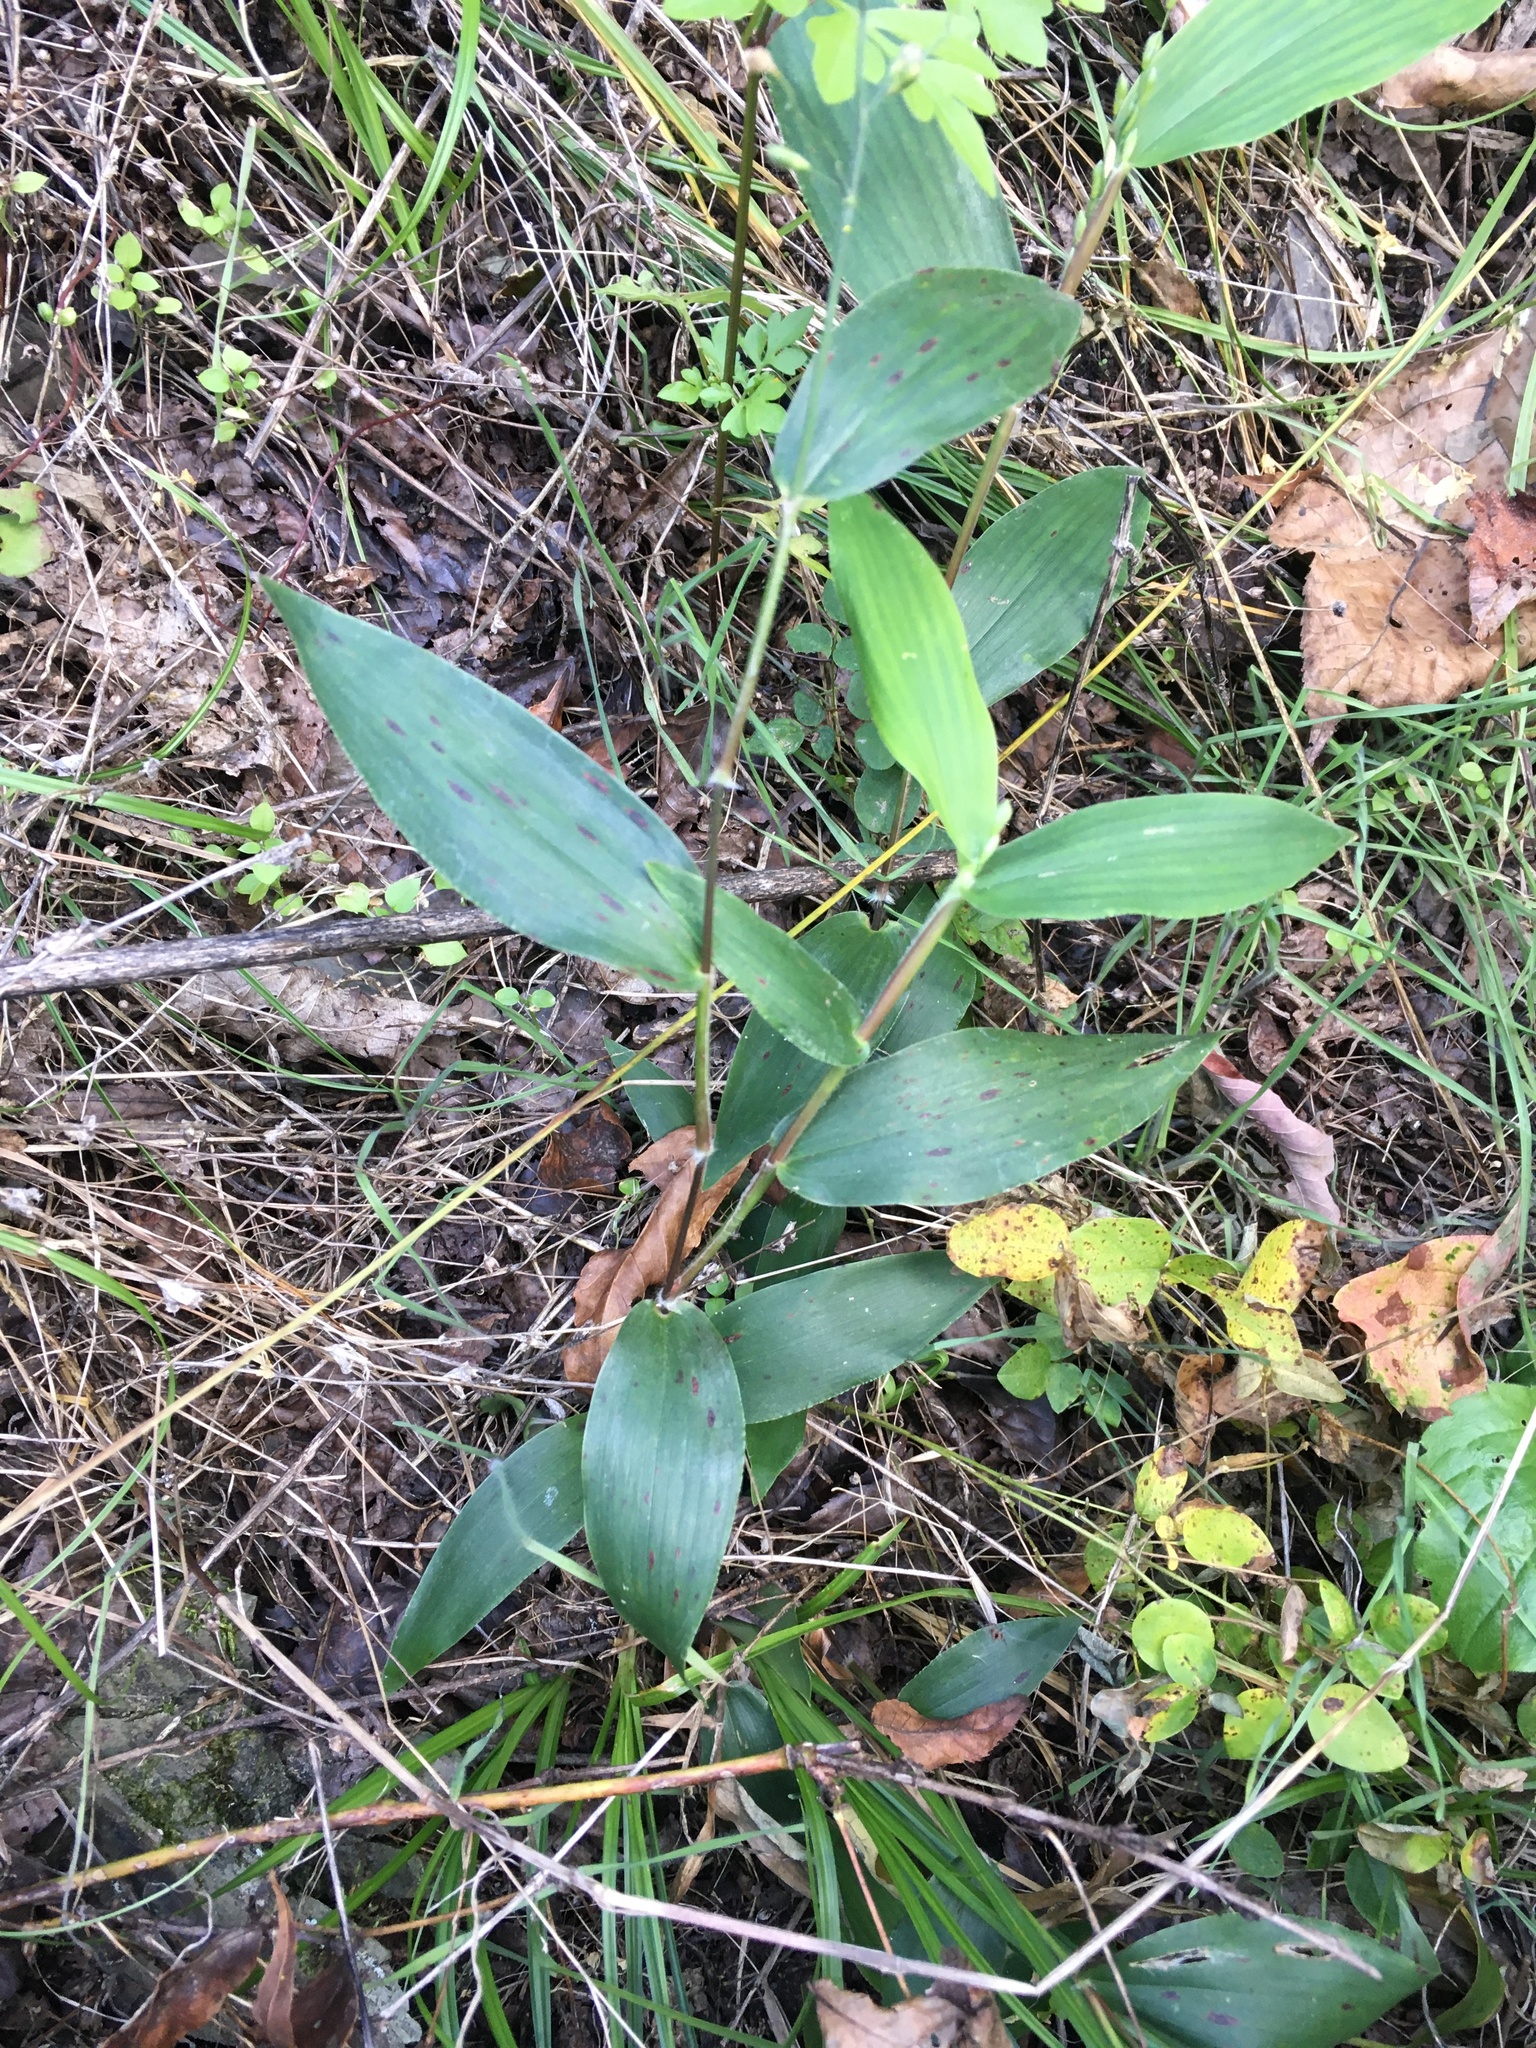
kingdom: Plantae
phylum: Tracheophyta
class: Liliopsida
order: Poales
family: Poaceae
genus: Dichanthelium
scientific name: Dichanthelium boscii
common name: Bosc's panic grass
